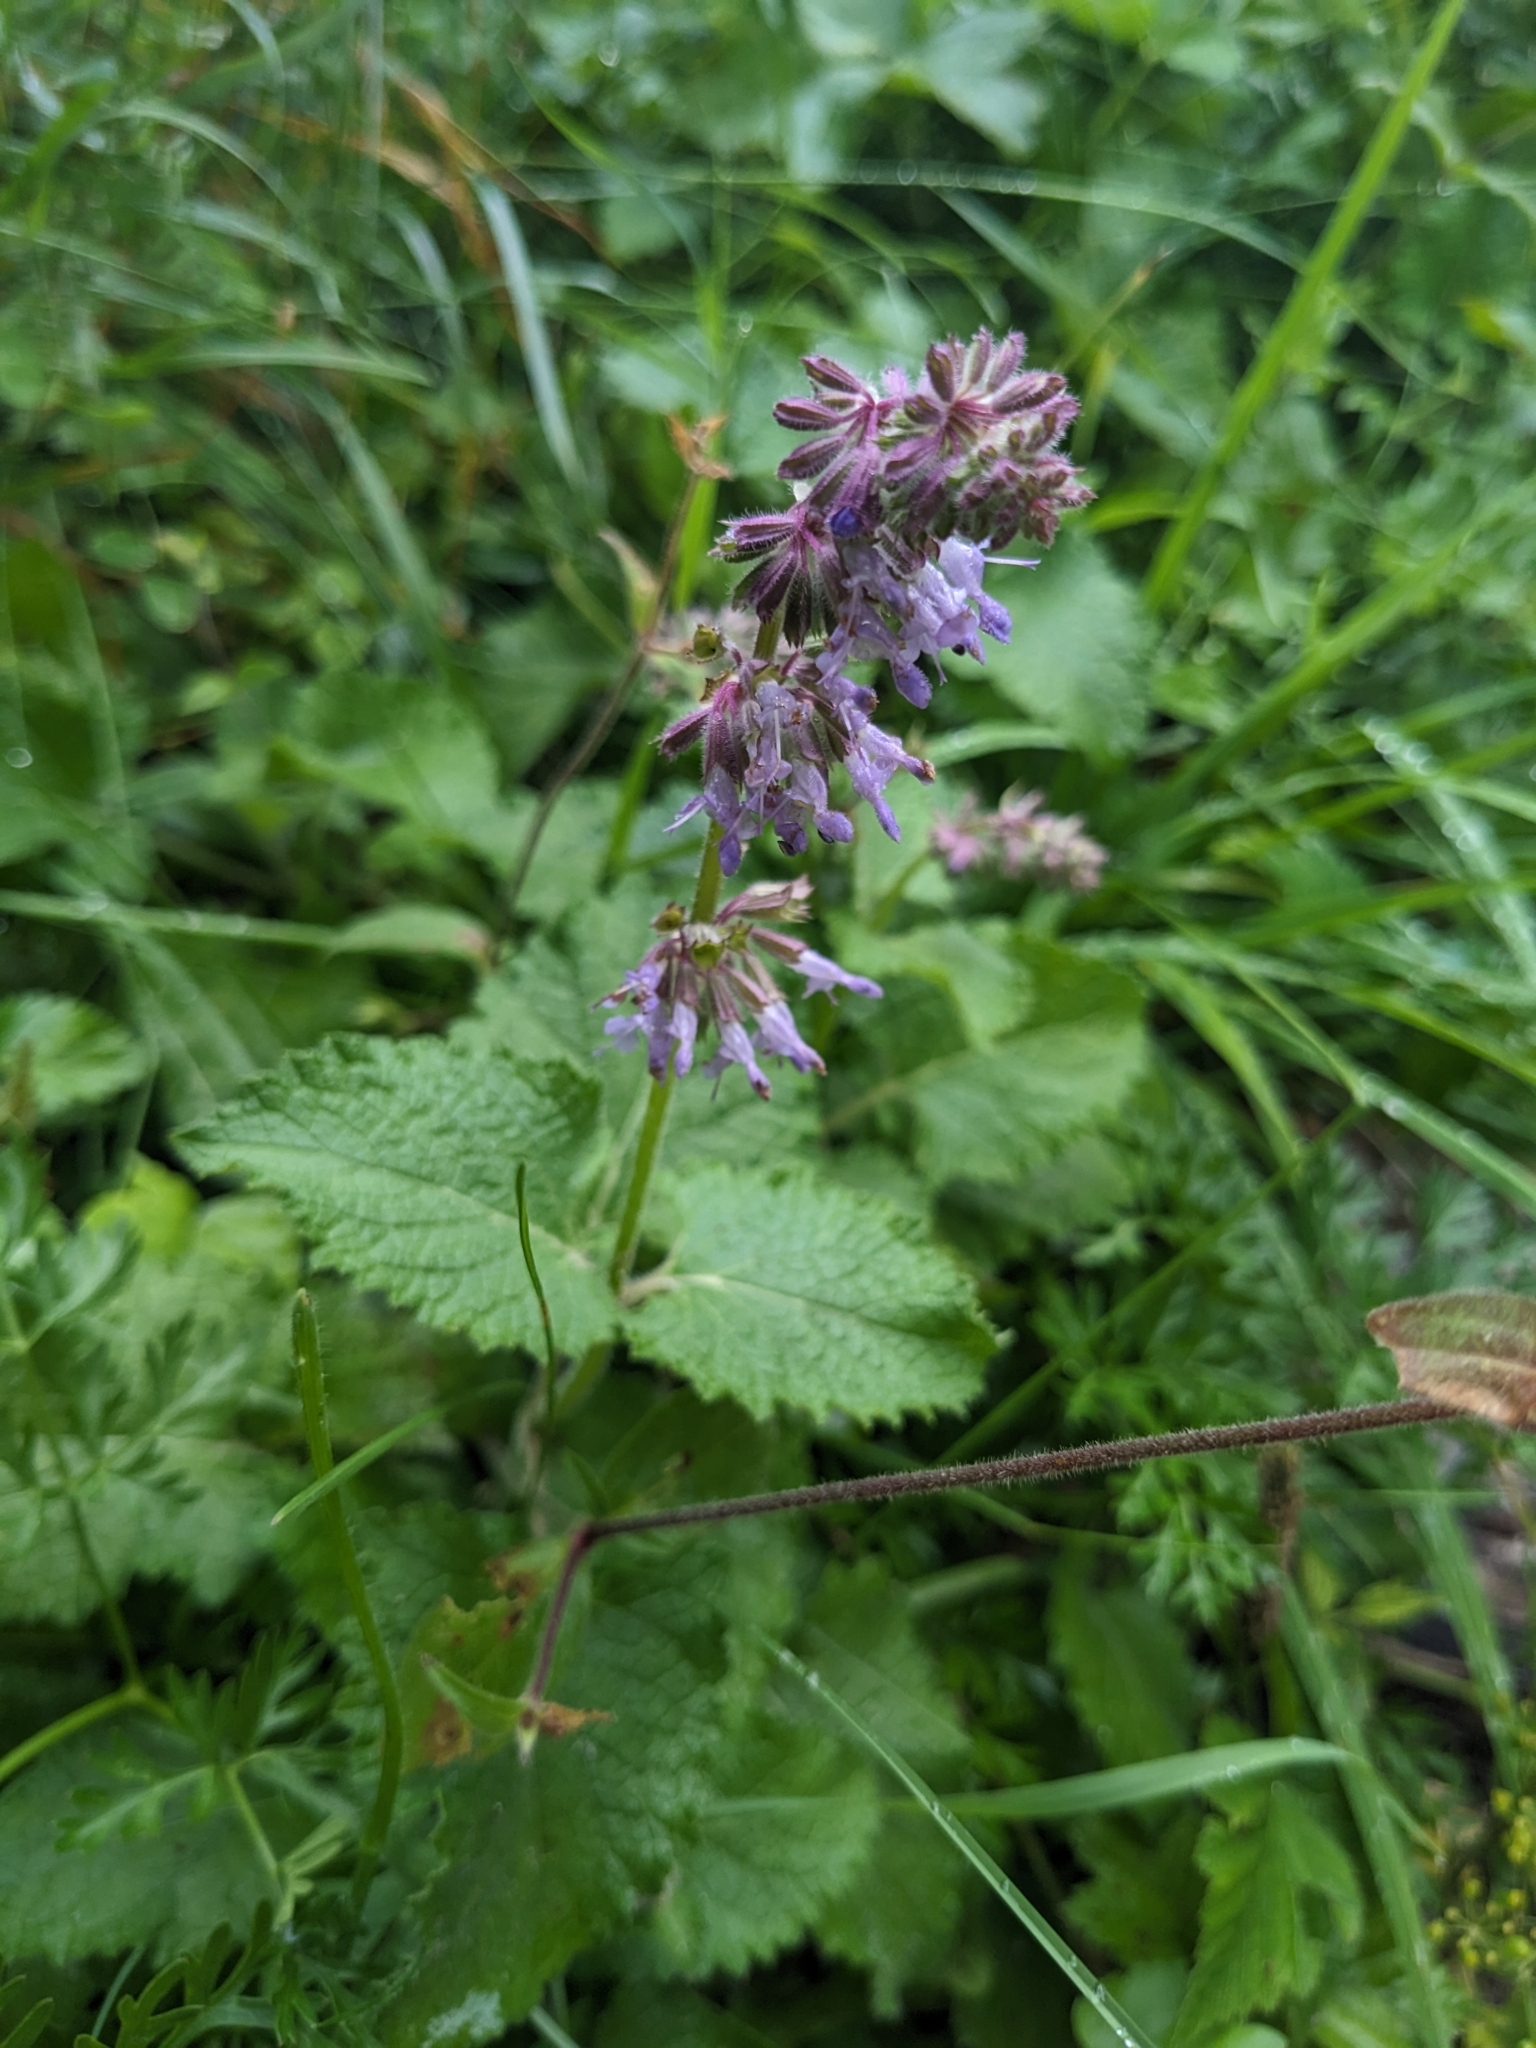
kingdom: Plantae
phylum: Tracheophyta
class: Magnoliopsida
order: Lamiales
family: Lamiaceae
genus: Salvia
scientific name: Salvia verticillata
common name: Whorled clary
